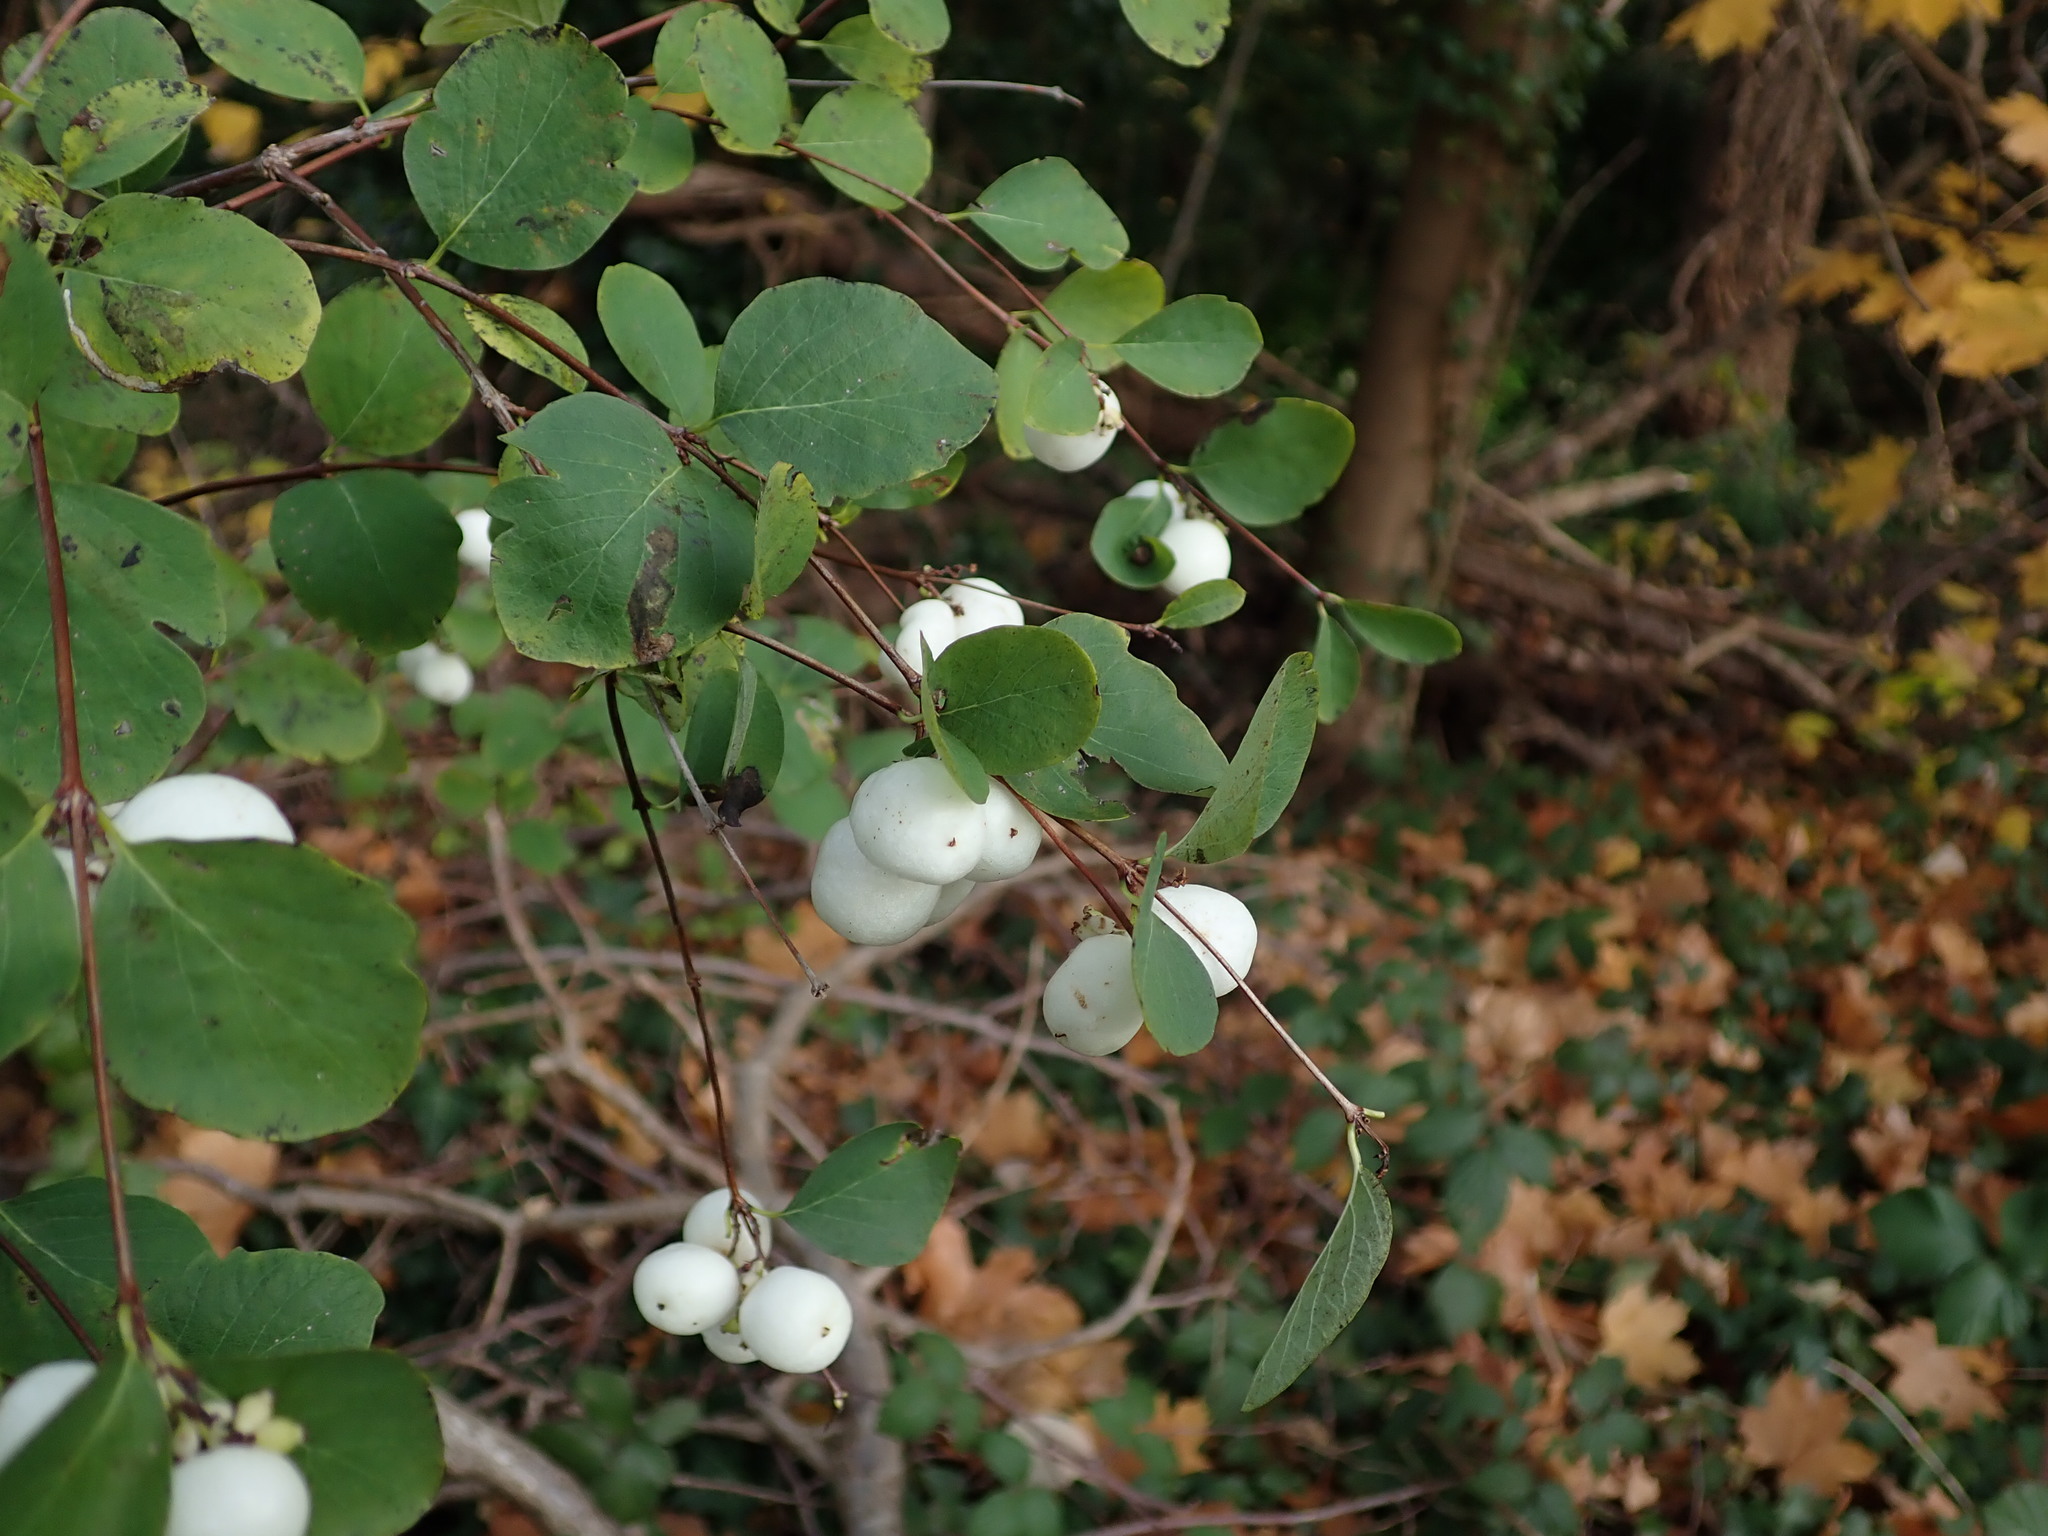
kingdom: Plantae
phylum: Tracheophyta
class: Magnoliopsida
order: Dipsacales
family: Caprifoliaceae
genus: Symphoricarpos
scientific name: Symphoricarpos albus
